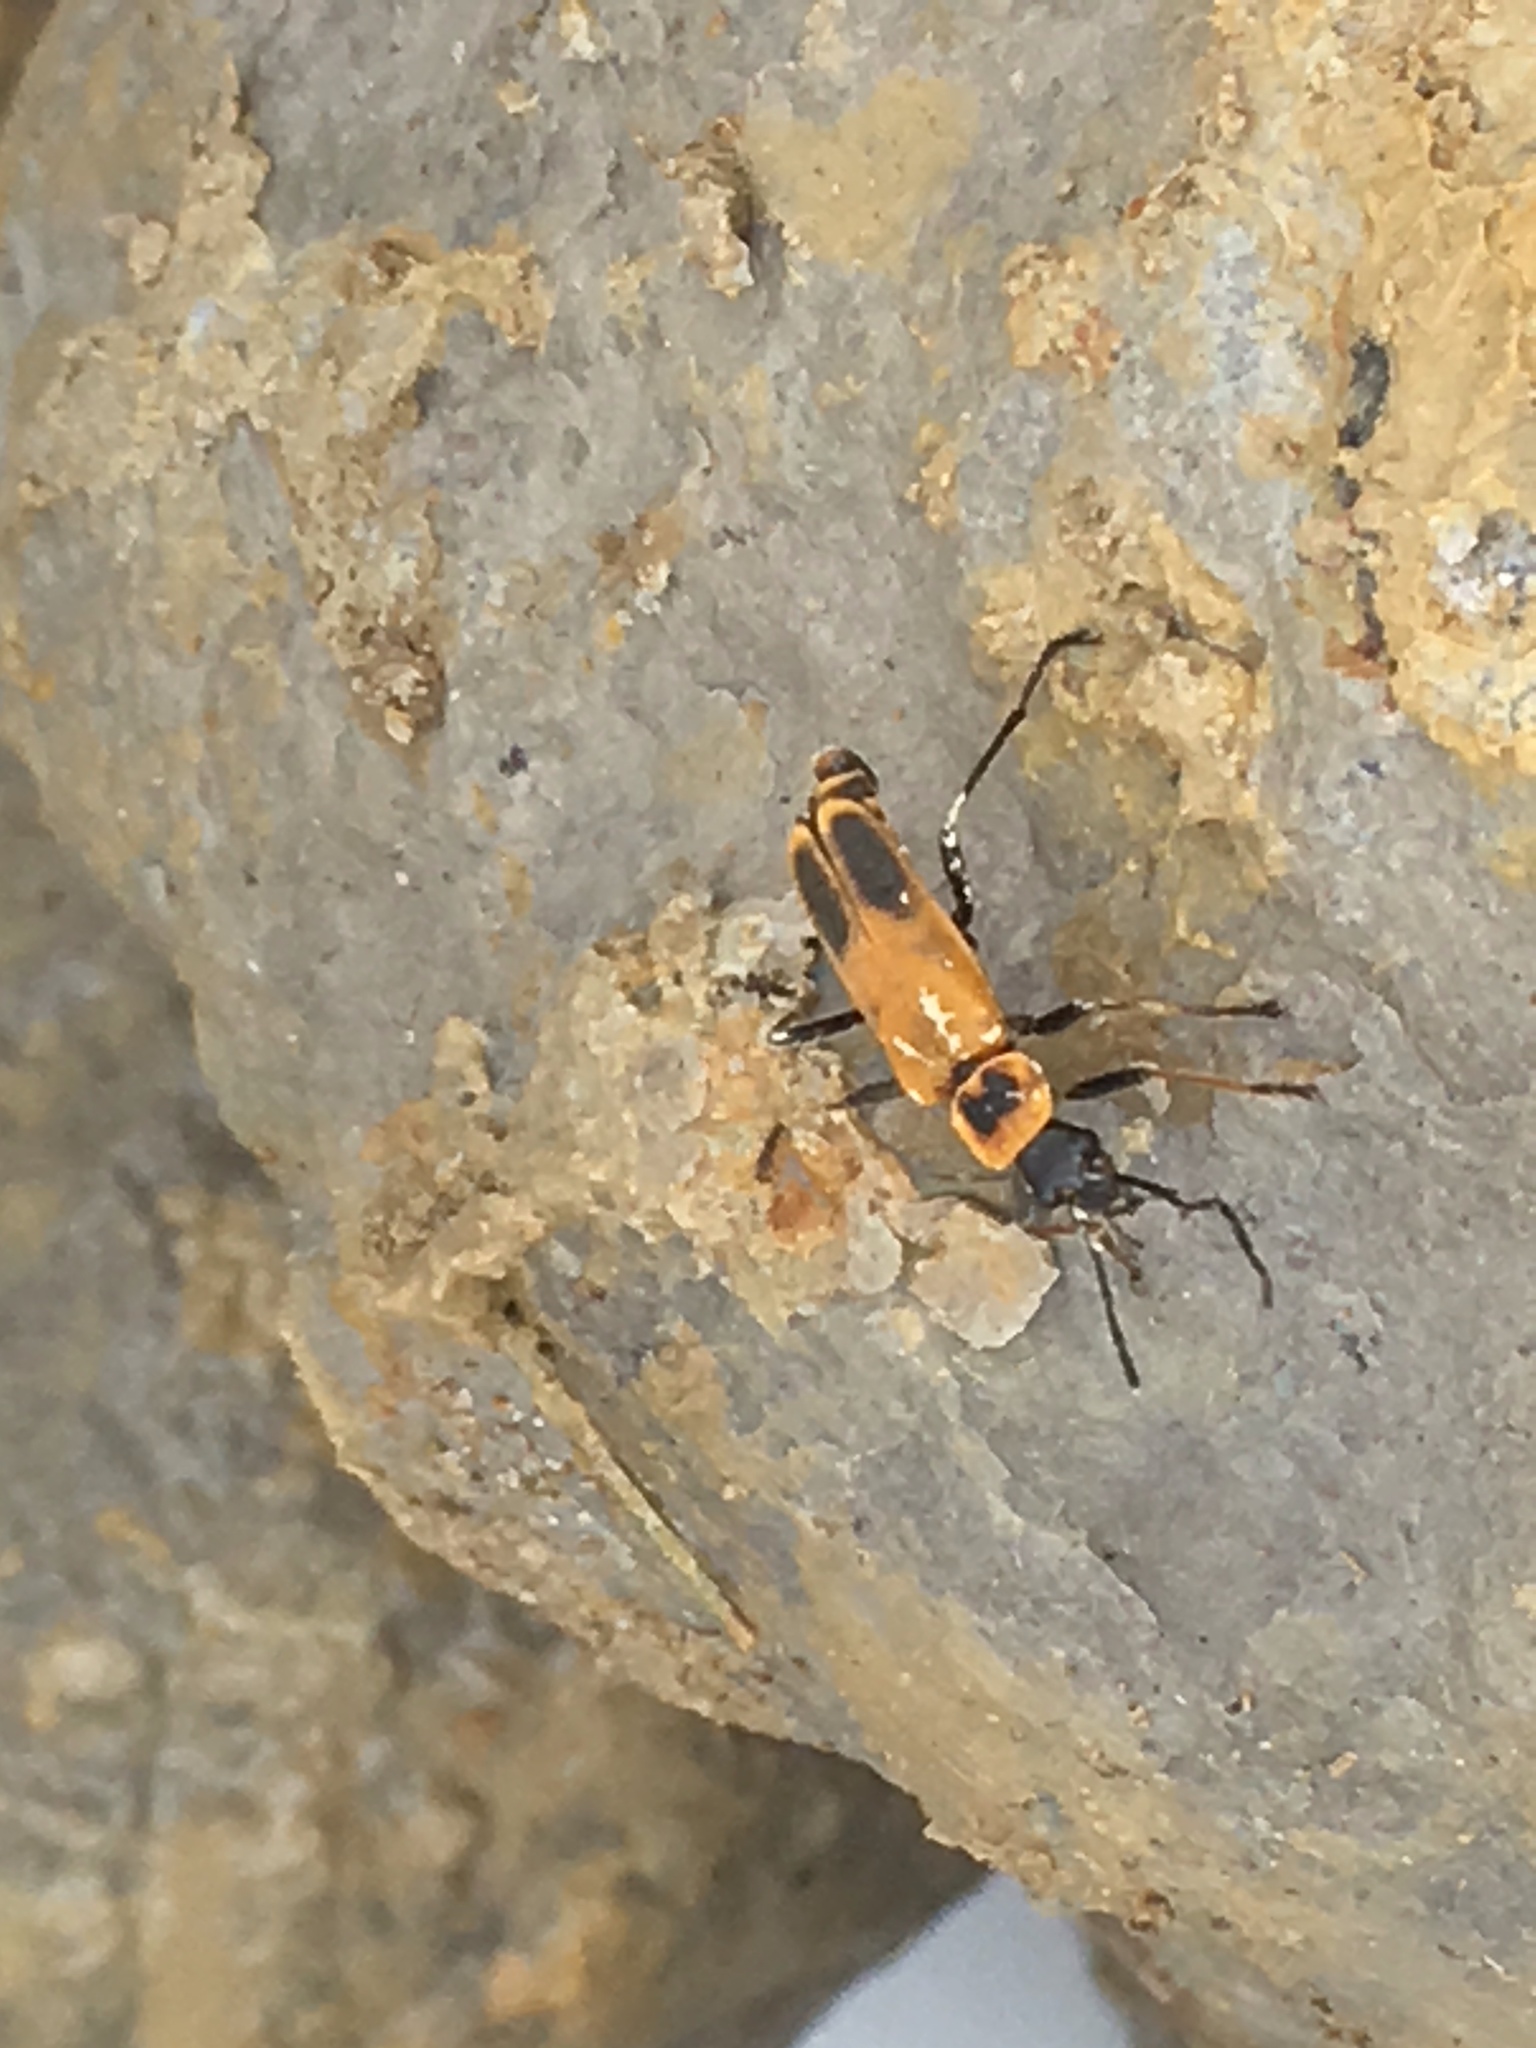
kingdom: Animalia
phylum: Arthropoda
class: Insecta
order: Coleoptera
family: Cantharidae
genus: Chauliognathus
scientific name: Chauliognathus pensylvanicus
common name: Goldenrod soldier beetle
